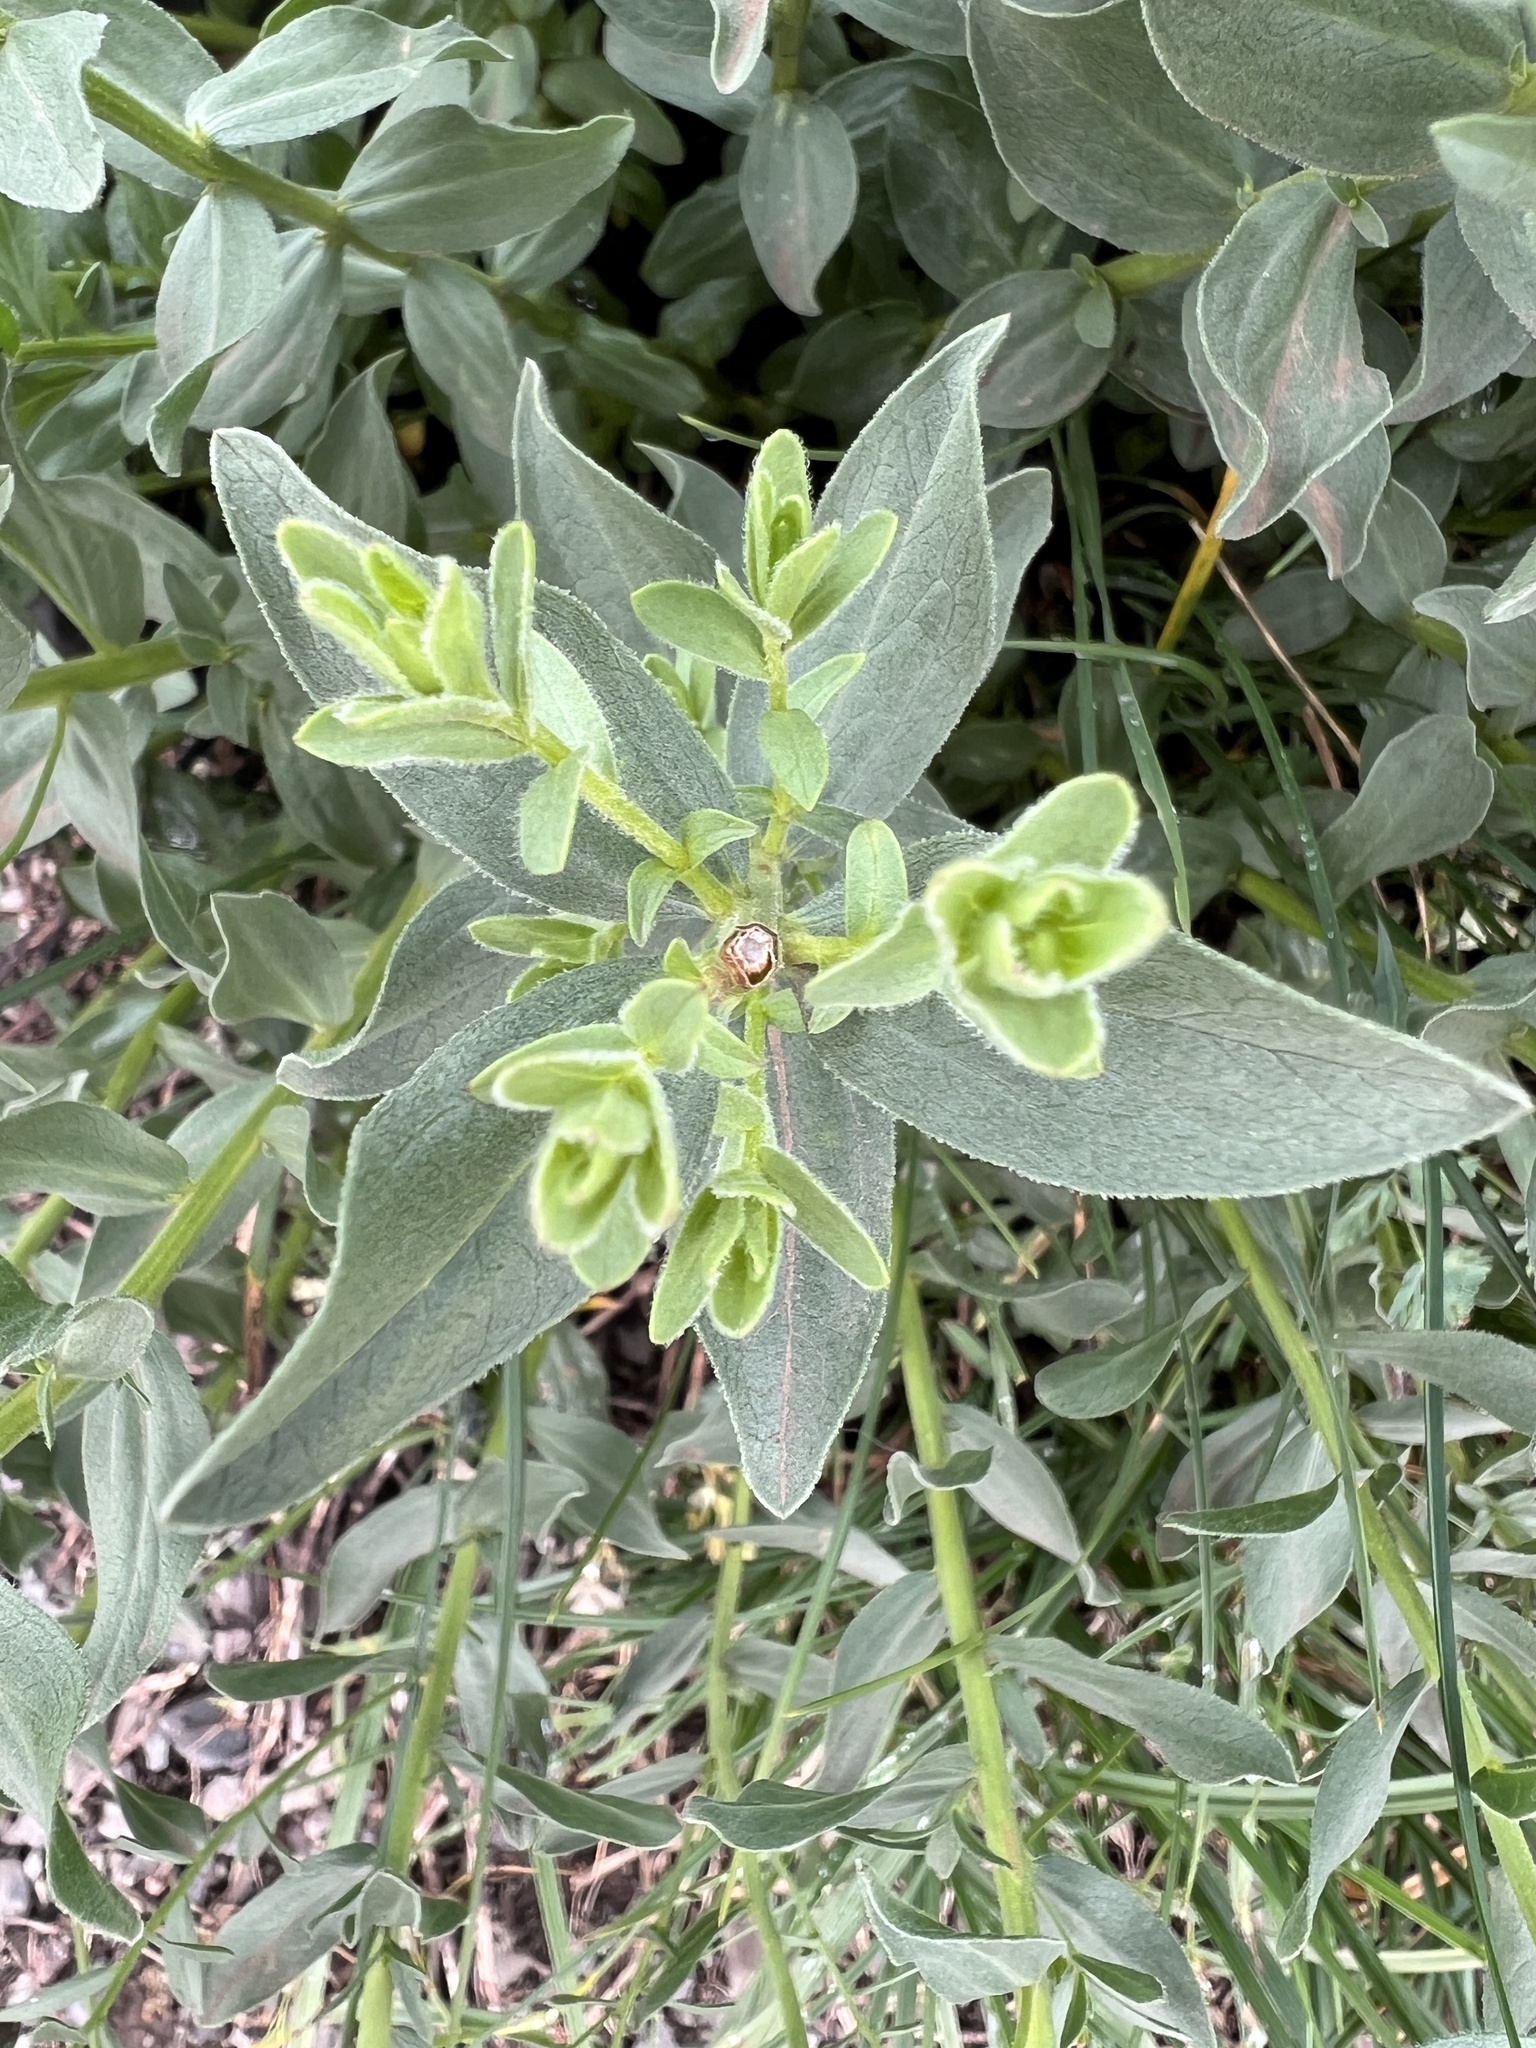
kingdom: Plantae
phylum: Tracheophyta
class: Magnoliopsida
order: Asterales
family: Asteraceae
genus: Eucephalus
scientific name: Eucephalus paucicapitatus
